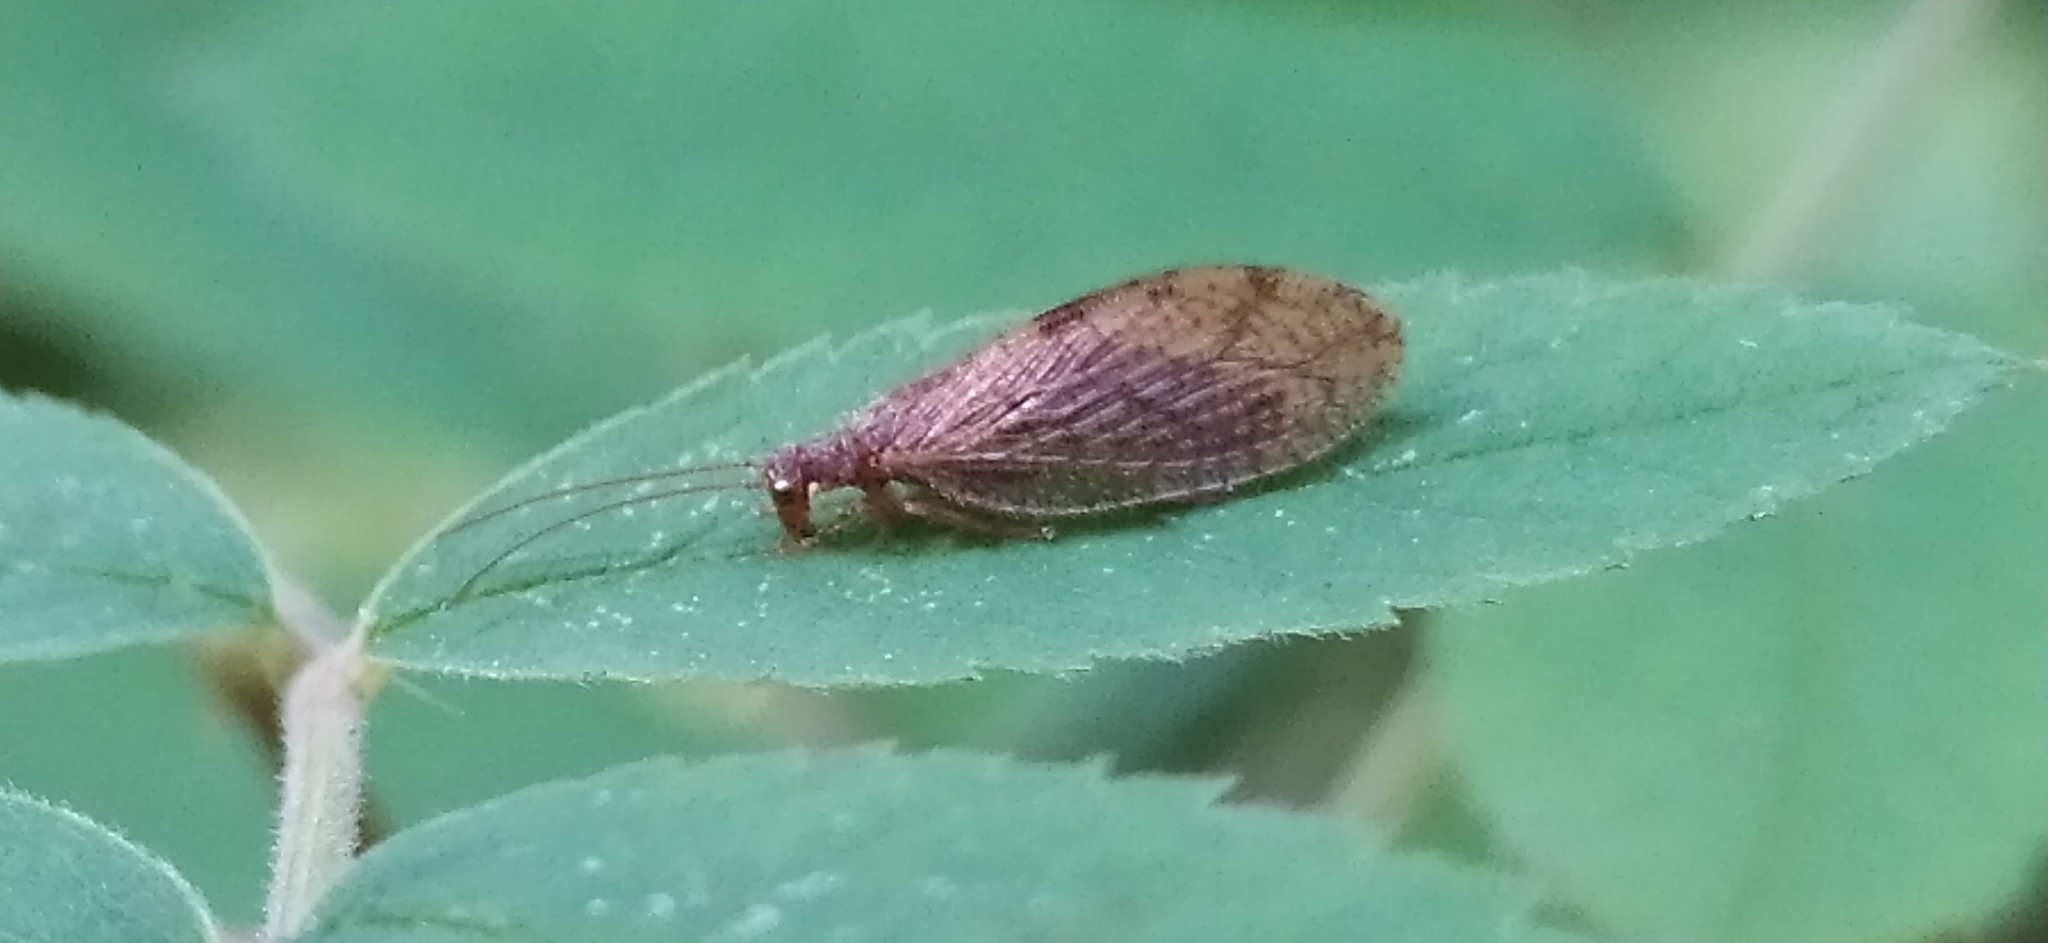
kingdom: Animalia
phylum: Arthropoda
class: Insecta
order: Neuroptera
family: Hemerobiidae
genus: Micromus
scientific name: Micromus angulatus
